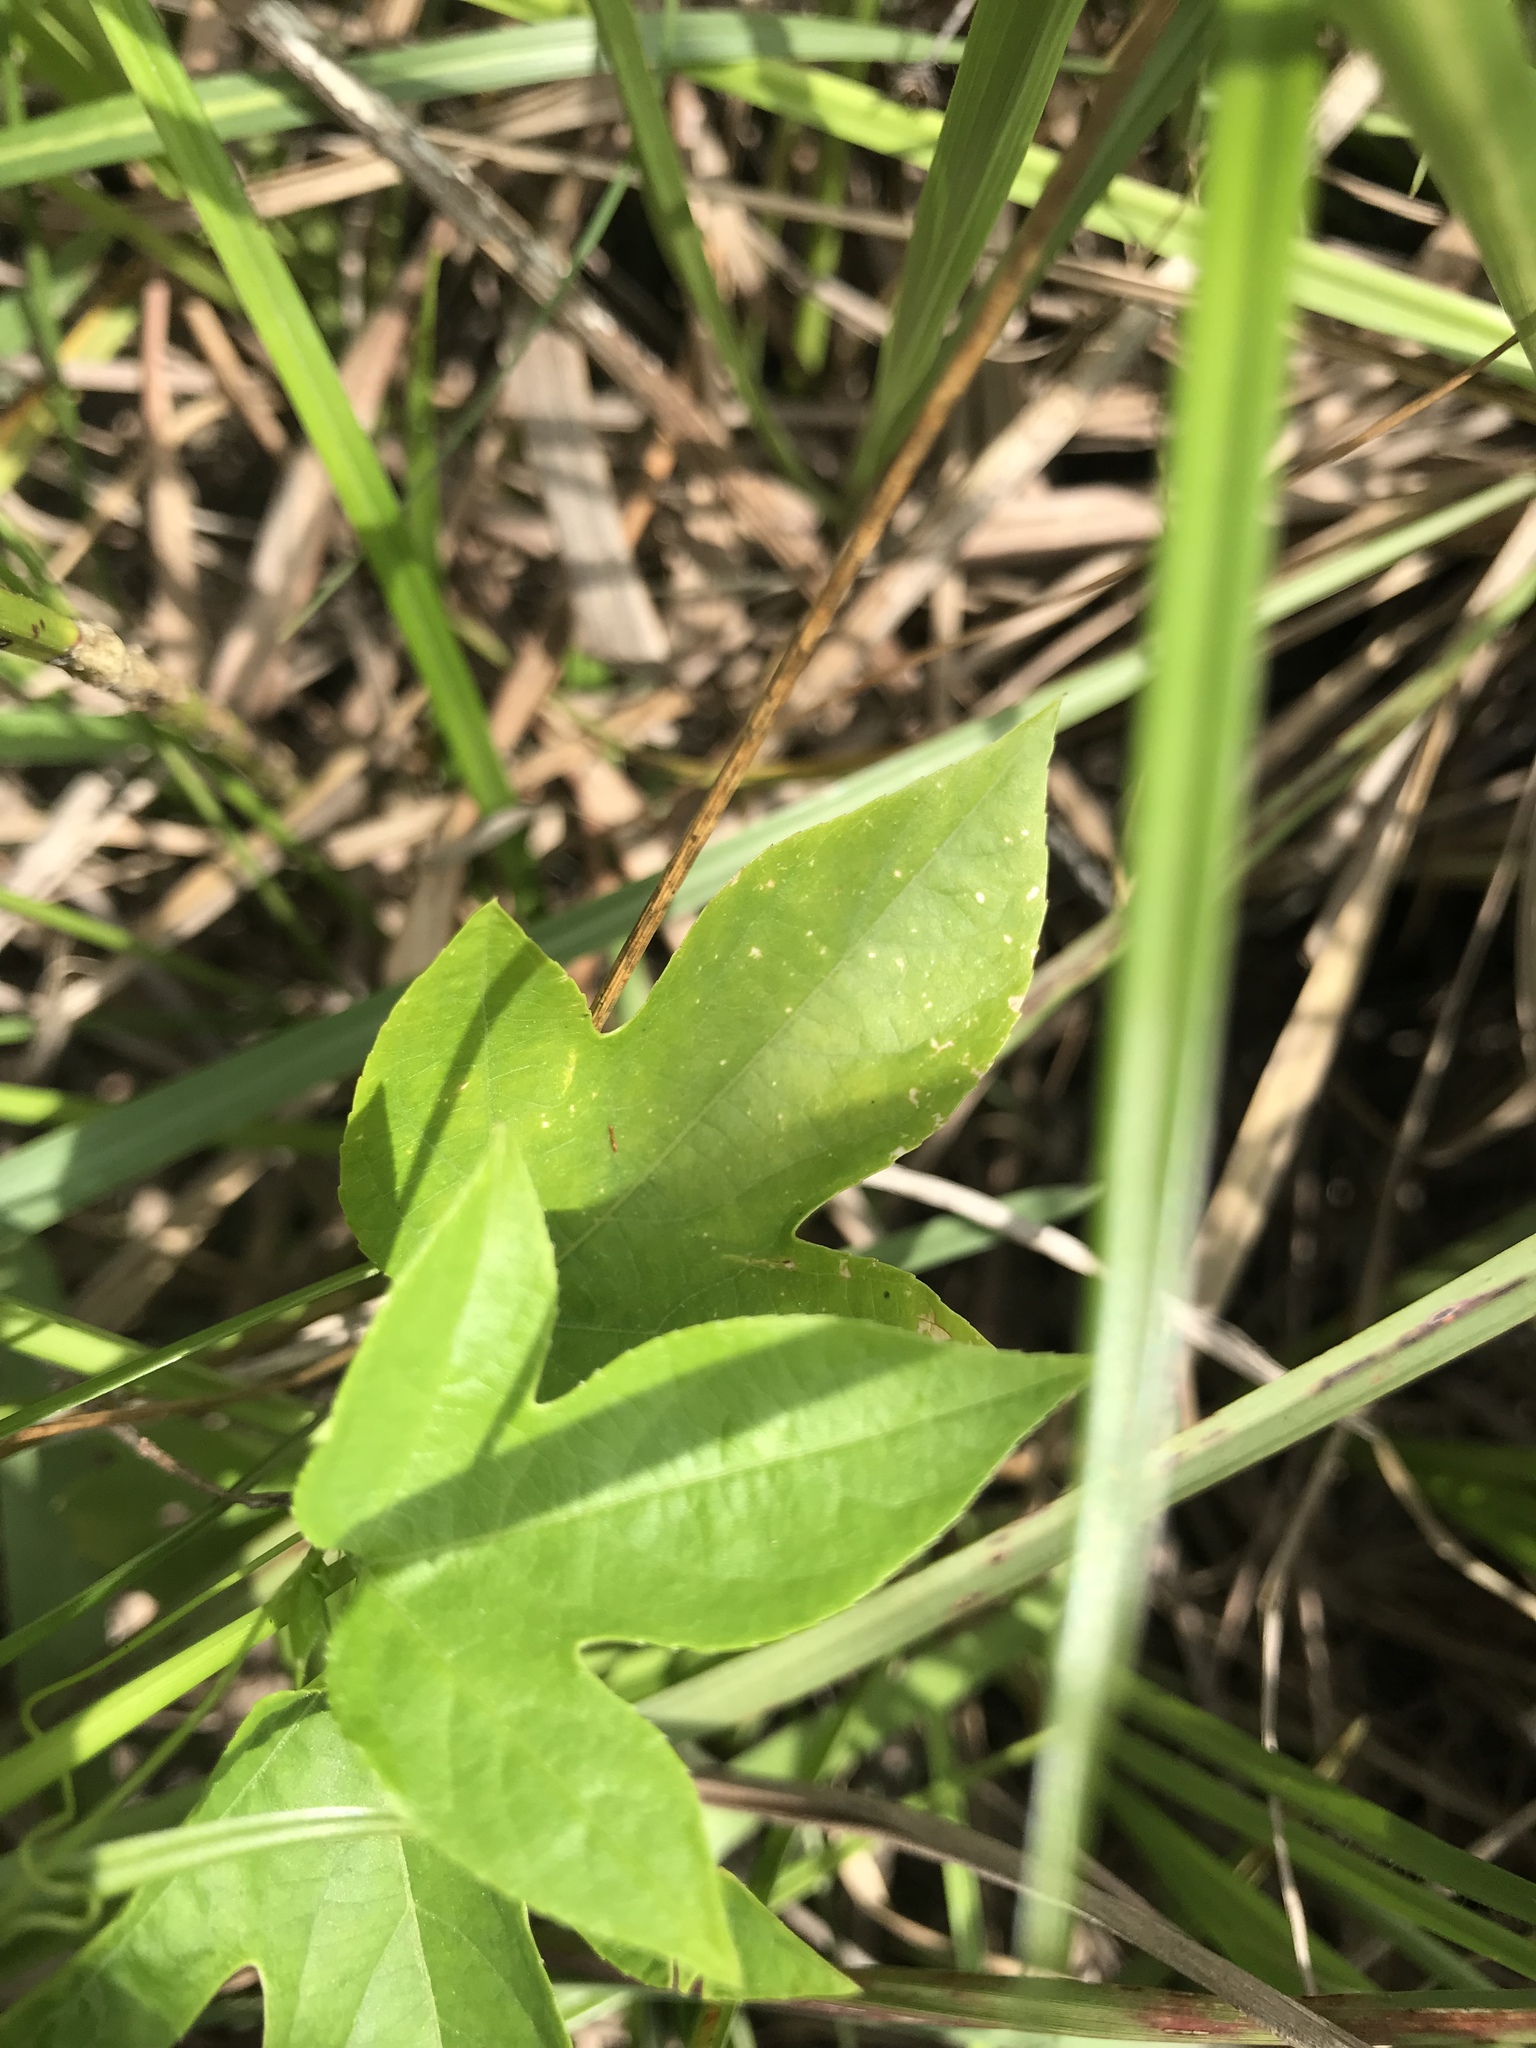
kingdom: Plantae
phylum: Tracheophyta
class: Magnoliopsida
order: Malpighiales
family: Passifloraceae
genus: Passiflora
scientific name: Passiflora incarnata
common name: Apricot-vine
